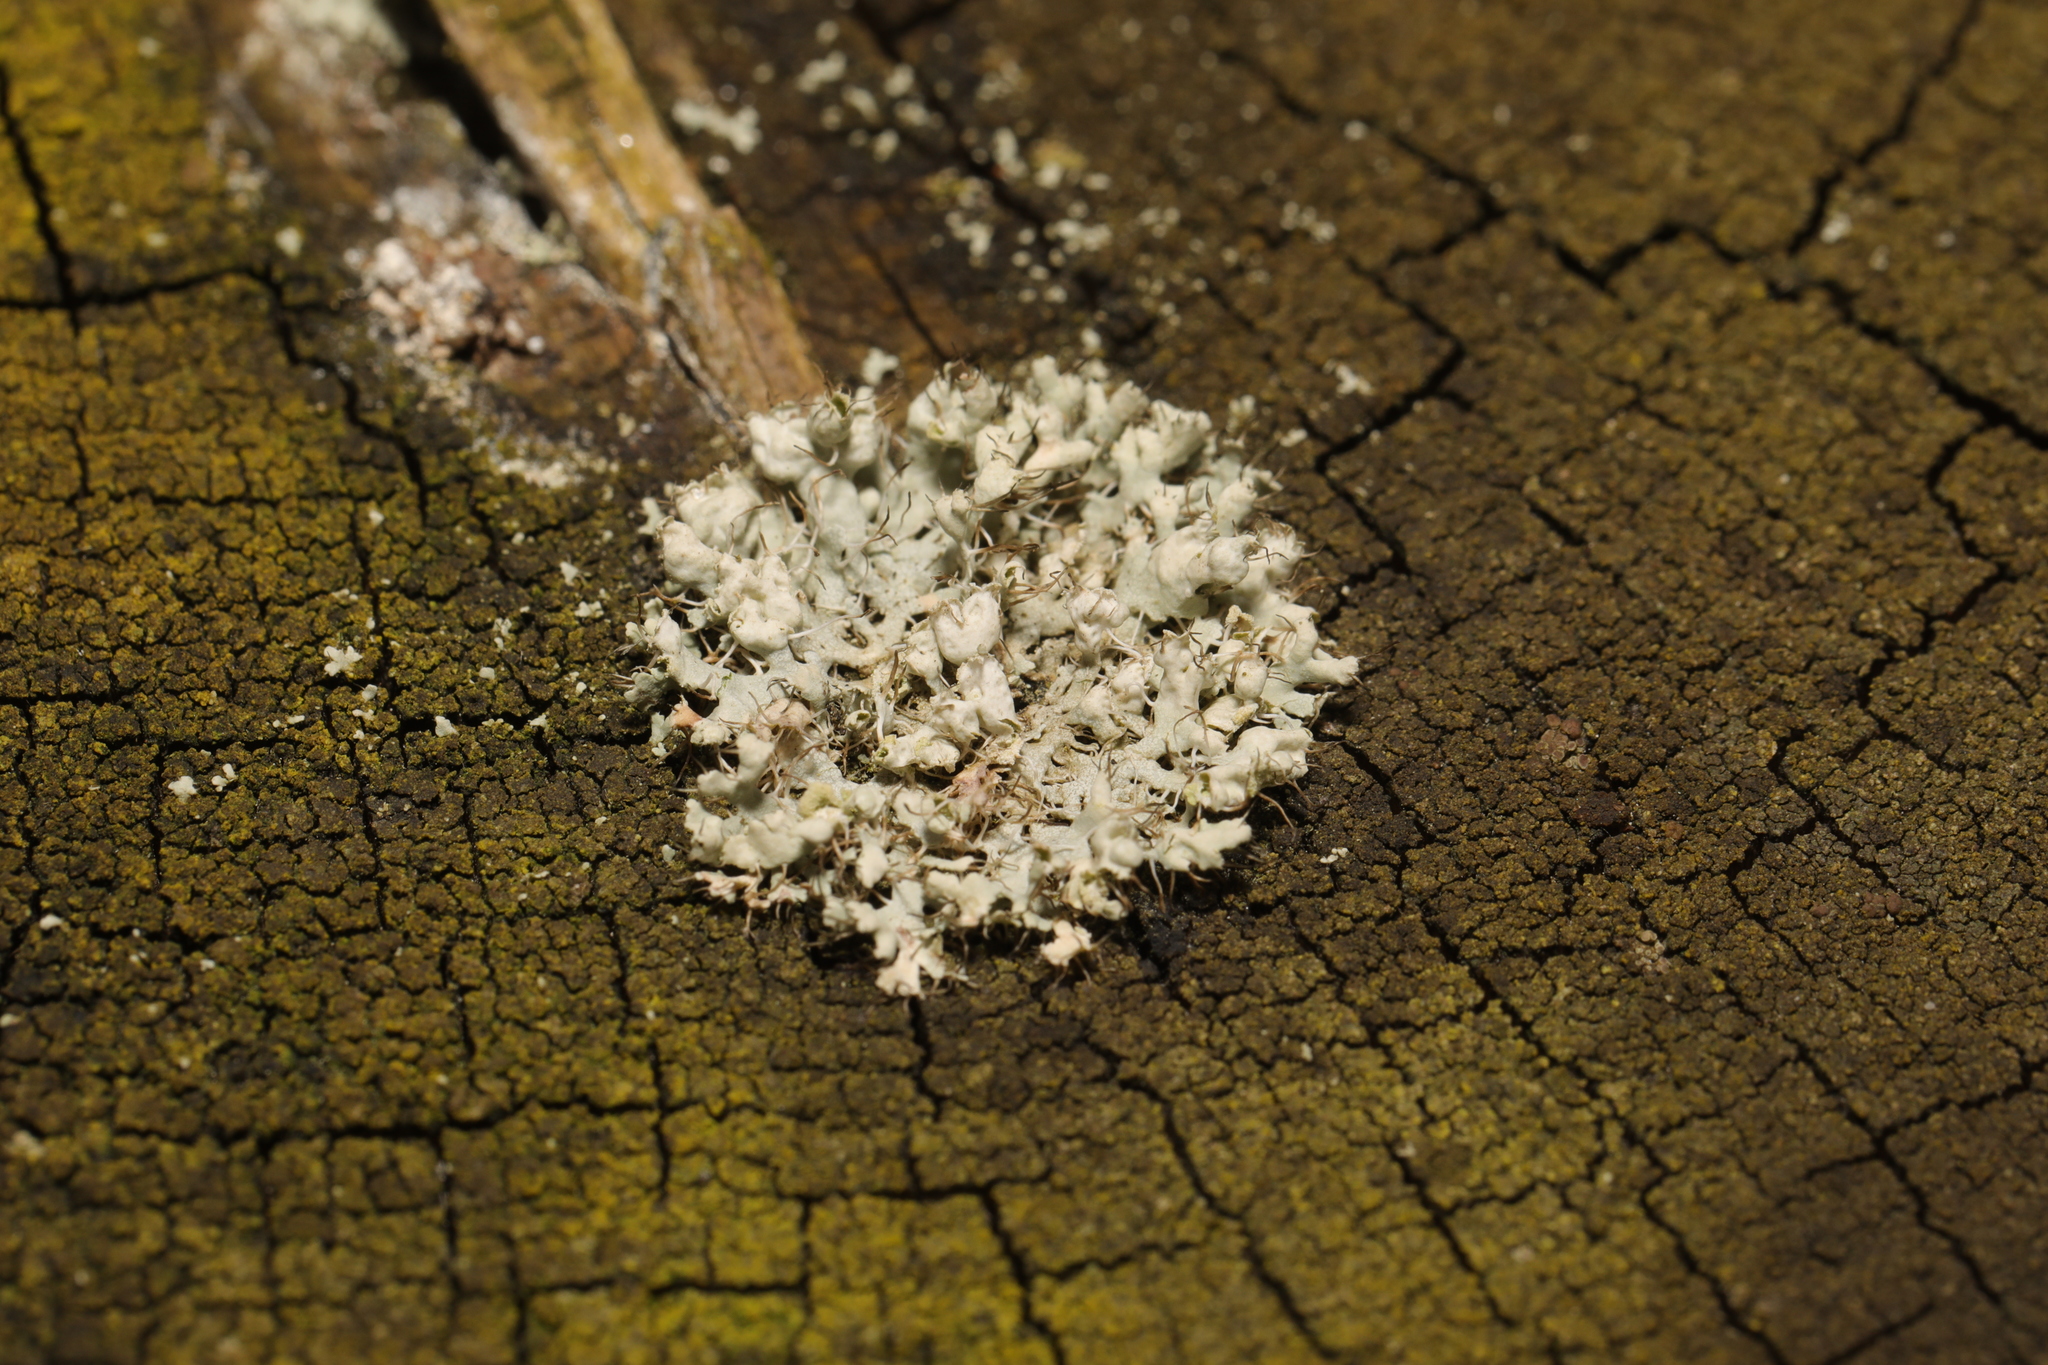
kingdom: Fungi
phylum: Ascomycota
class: Lecanoromycetes
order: Caliciales
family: Physciaceae
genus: Physcia
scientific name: Physcia adscendens
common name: Hooded rosette lichen
